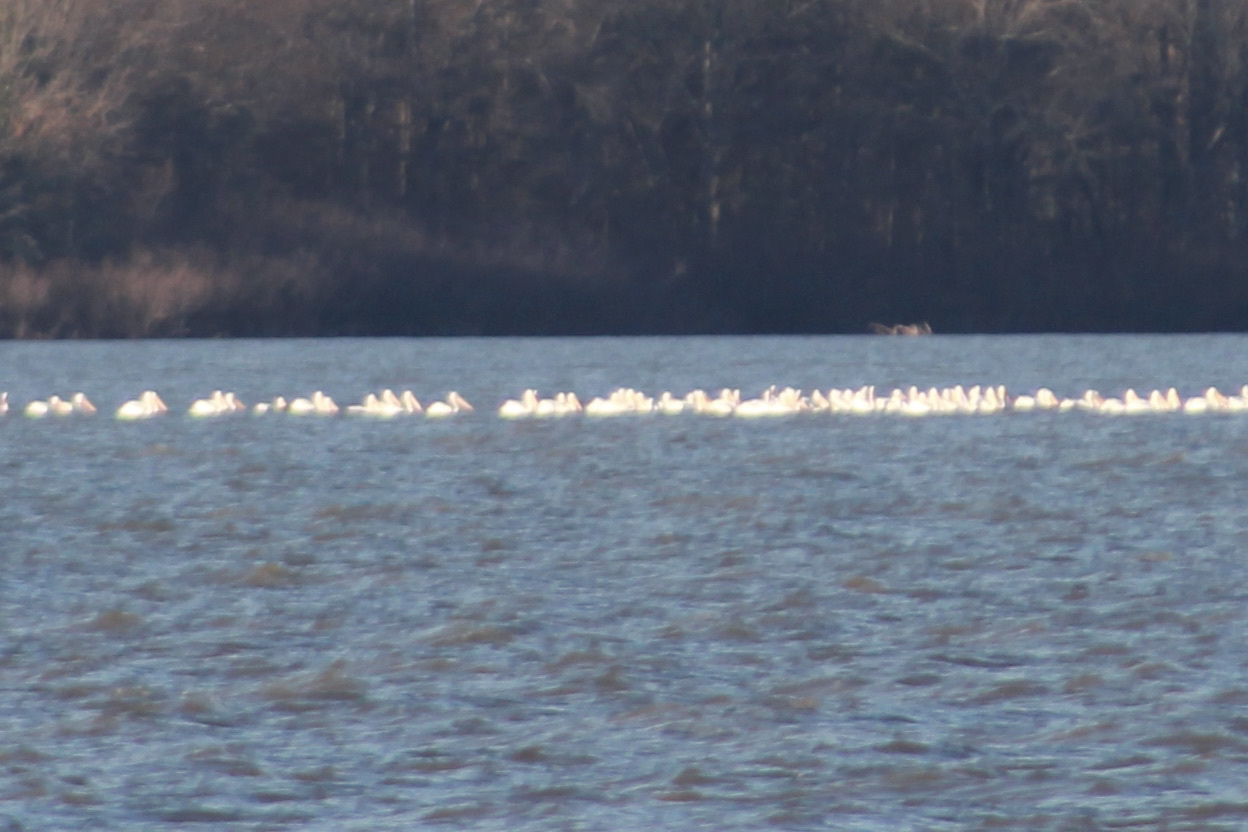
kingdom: Animalia
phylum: Chordata
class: Aves
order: Pelecaniformes
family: Pelecanidae
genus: Pelecanus
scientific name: Pelecanus erythrorhynchos
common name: American white pelican
